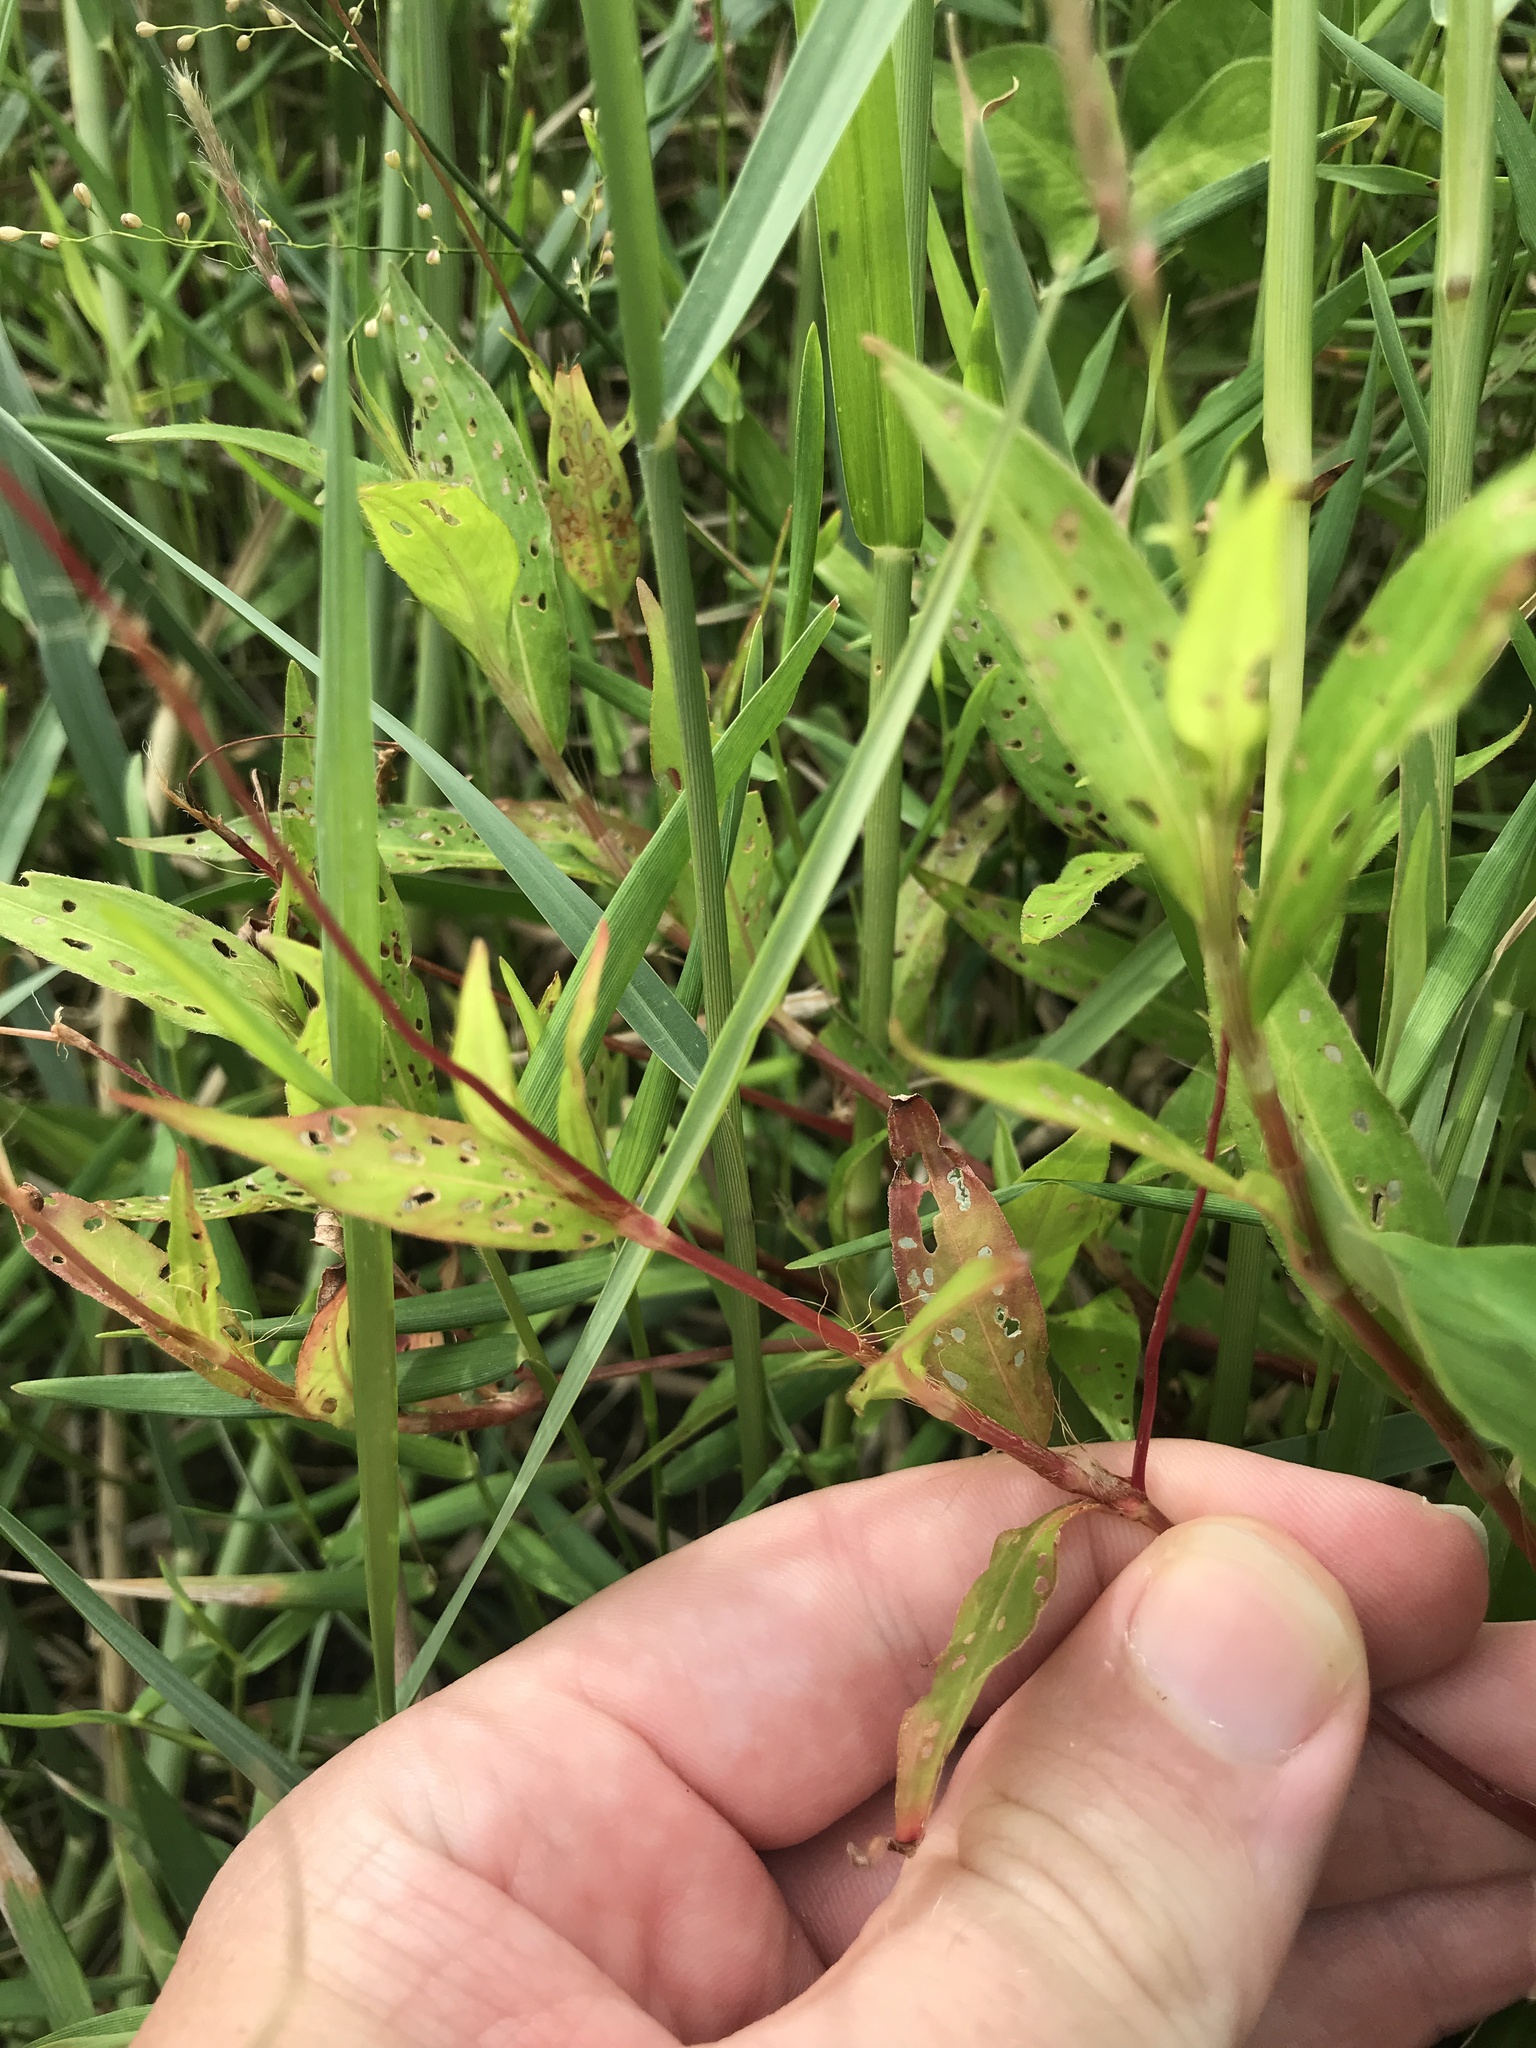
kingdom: Plantae
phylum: Tracheophyta
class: Magnoliopsida
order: Caryophyllales
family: Polygonaceae
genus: Persicaria
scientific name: Persicaria longiseta
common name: Bristly lady's-thumb
